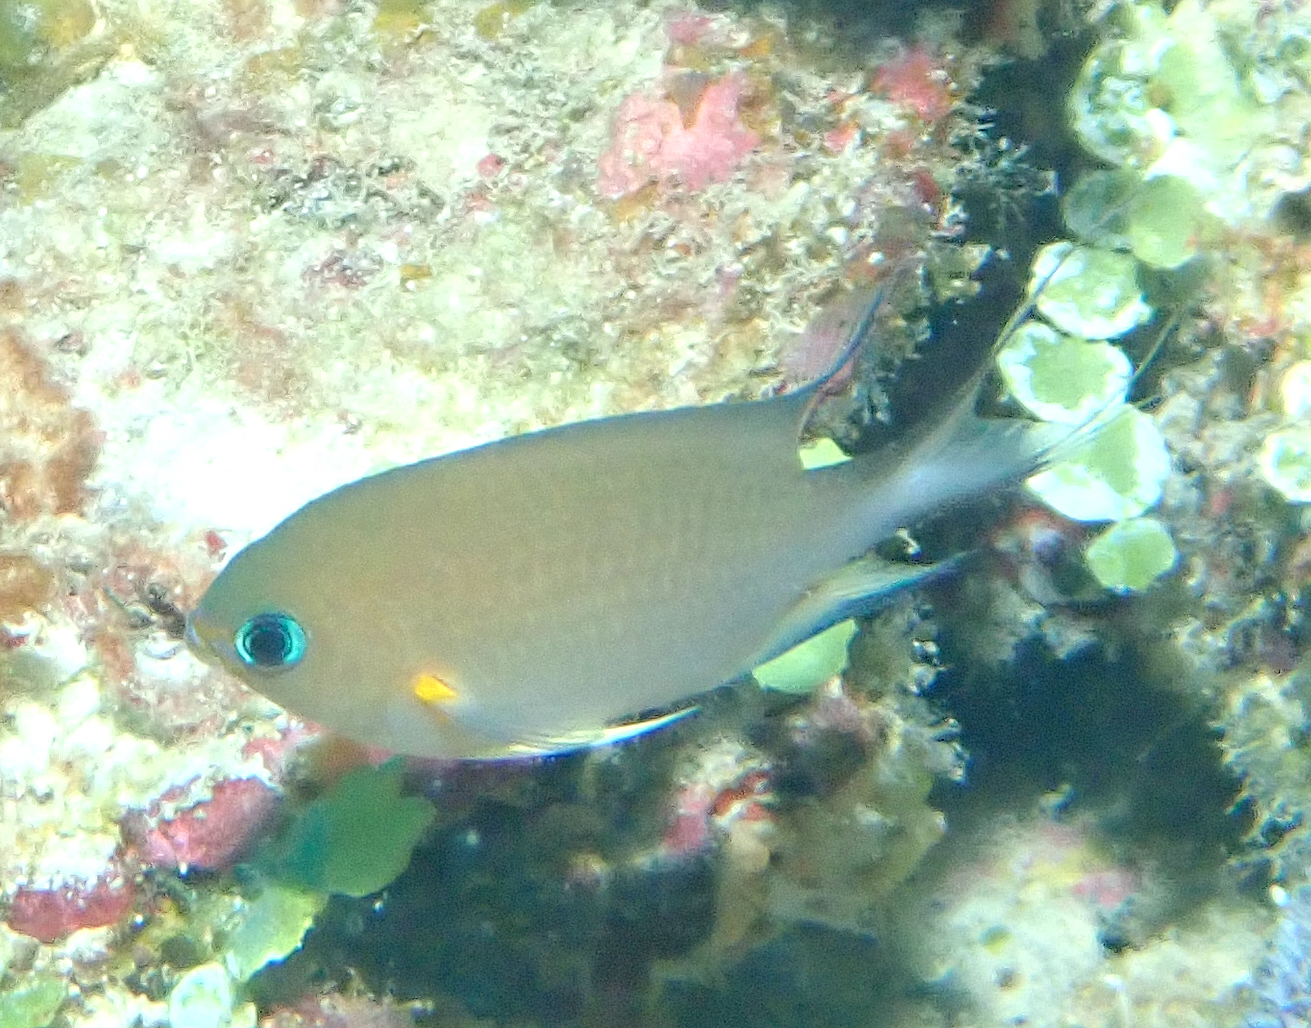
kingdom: Animalia
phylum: Chordata
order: Perciformes
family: Pomacentridae
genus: Chromis
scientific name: Chromis amboinensis
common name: Ambon chromis
